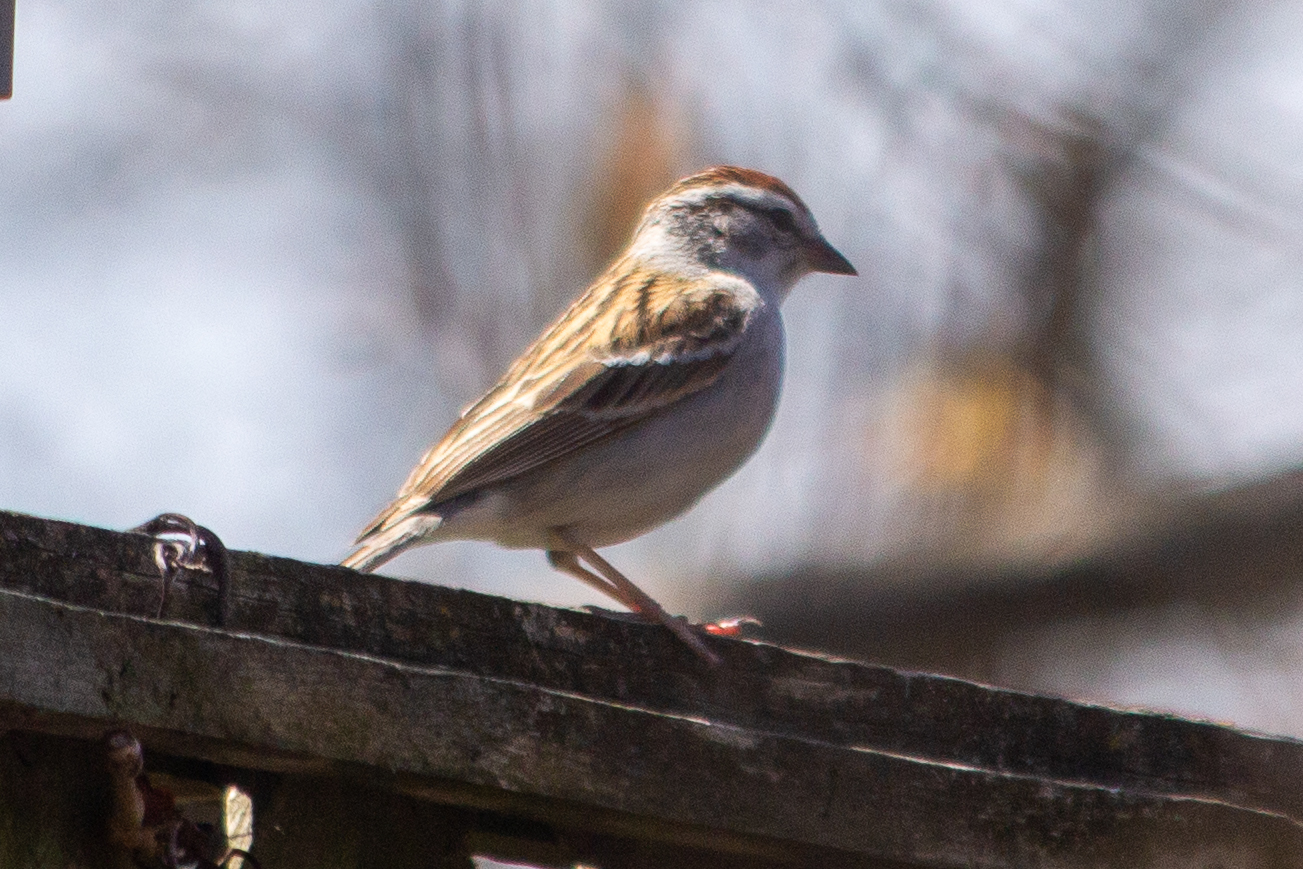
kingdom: Animalia
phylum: Chordata
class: Aves
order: Passeriformes
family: Passerellidae
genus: Spizella
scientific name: Spizella passerina
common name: Chipping sparrow
